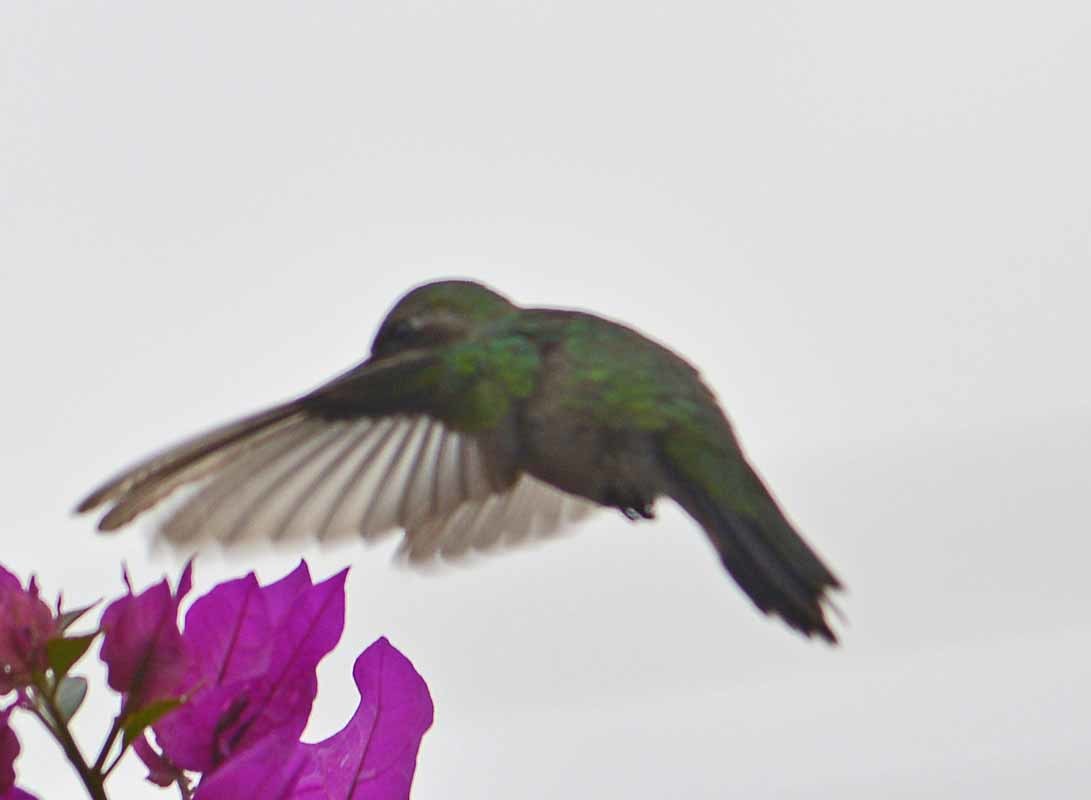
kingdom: Animalia
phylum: Chordata
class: Aves
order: Apodiformes
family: Trochilidae
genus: Cynanthus
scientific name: Cynanthus latirostris
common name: Broad-billed hummingbird
